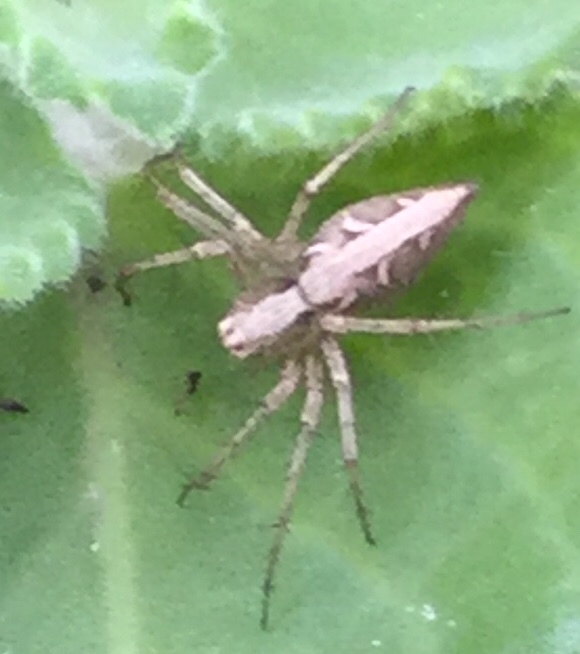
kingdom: Animalia
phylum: Arthropoda
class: Arachnida
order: Araneae
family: Oxyopidae
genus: Oxyopes
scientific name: Oxyopes sertatus
